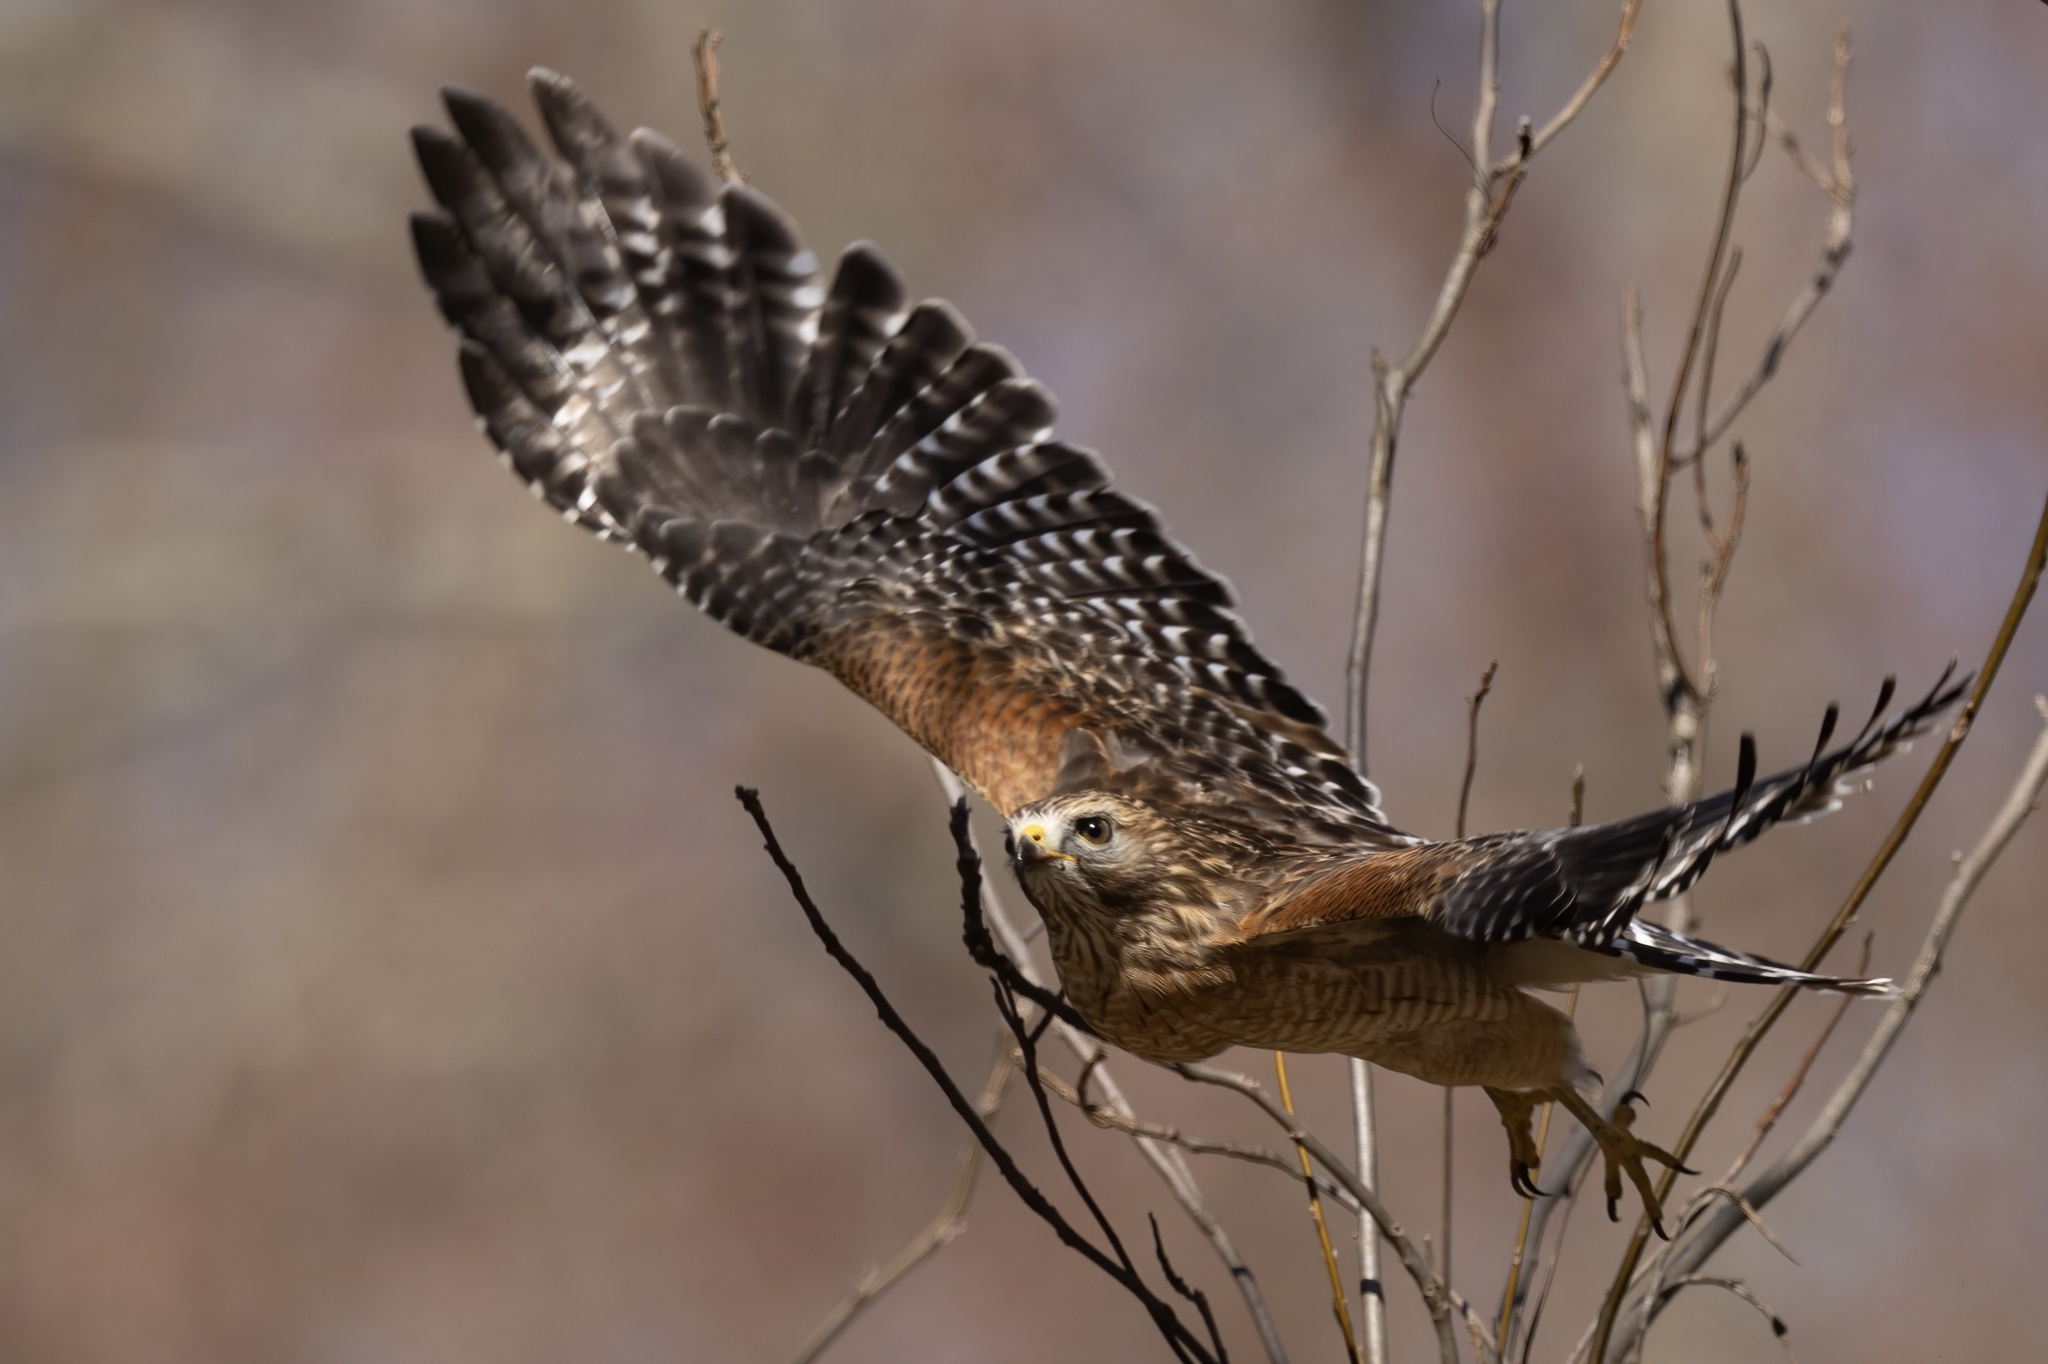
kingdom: Animalia
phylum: Chordata
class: Aves
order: Accipitriformes
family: Accipitridae
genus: Buteo
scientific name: Buteo lineatus
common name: Red-shouldered hawk
